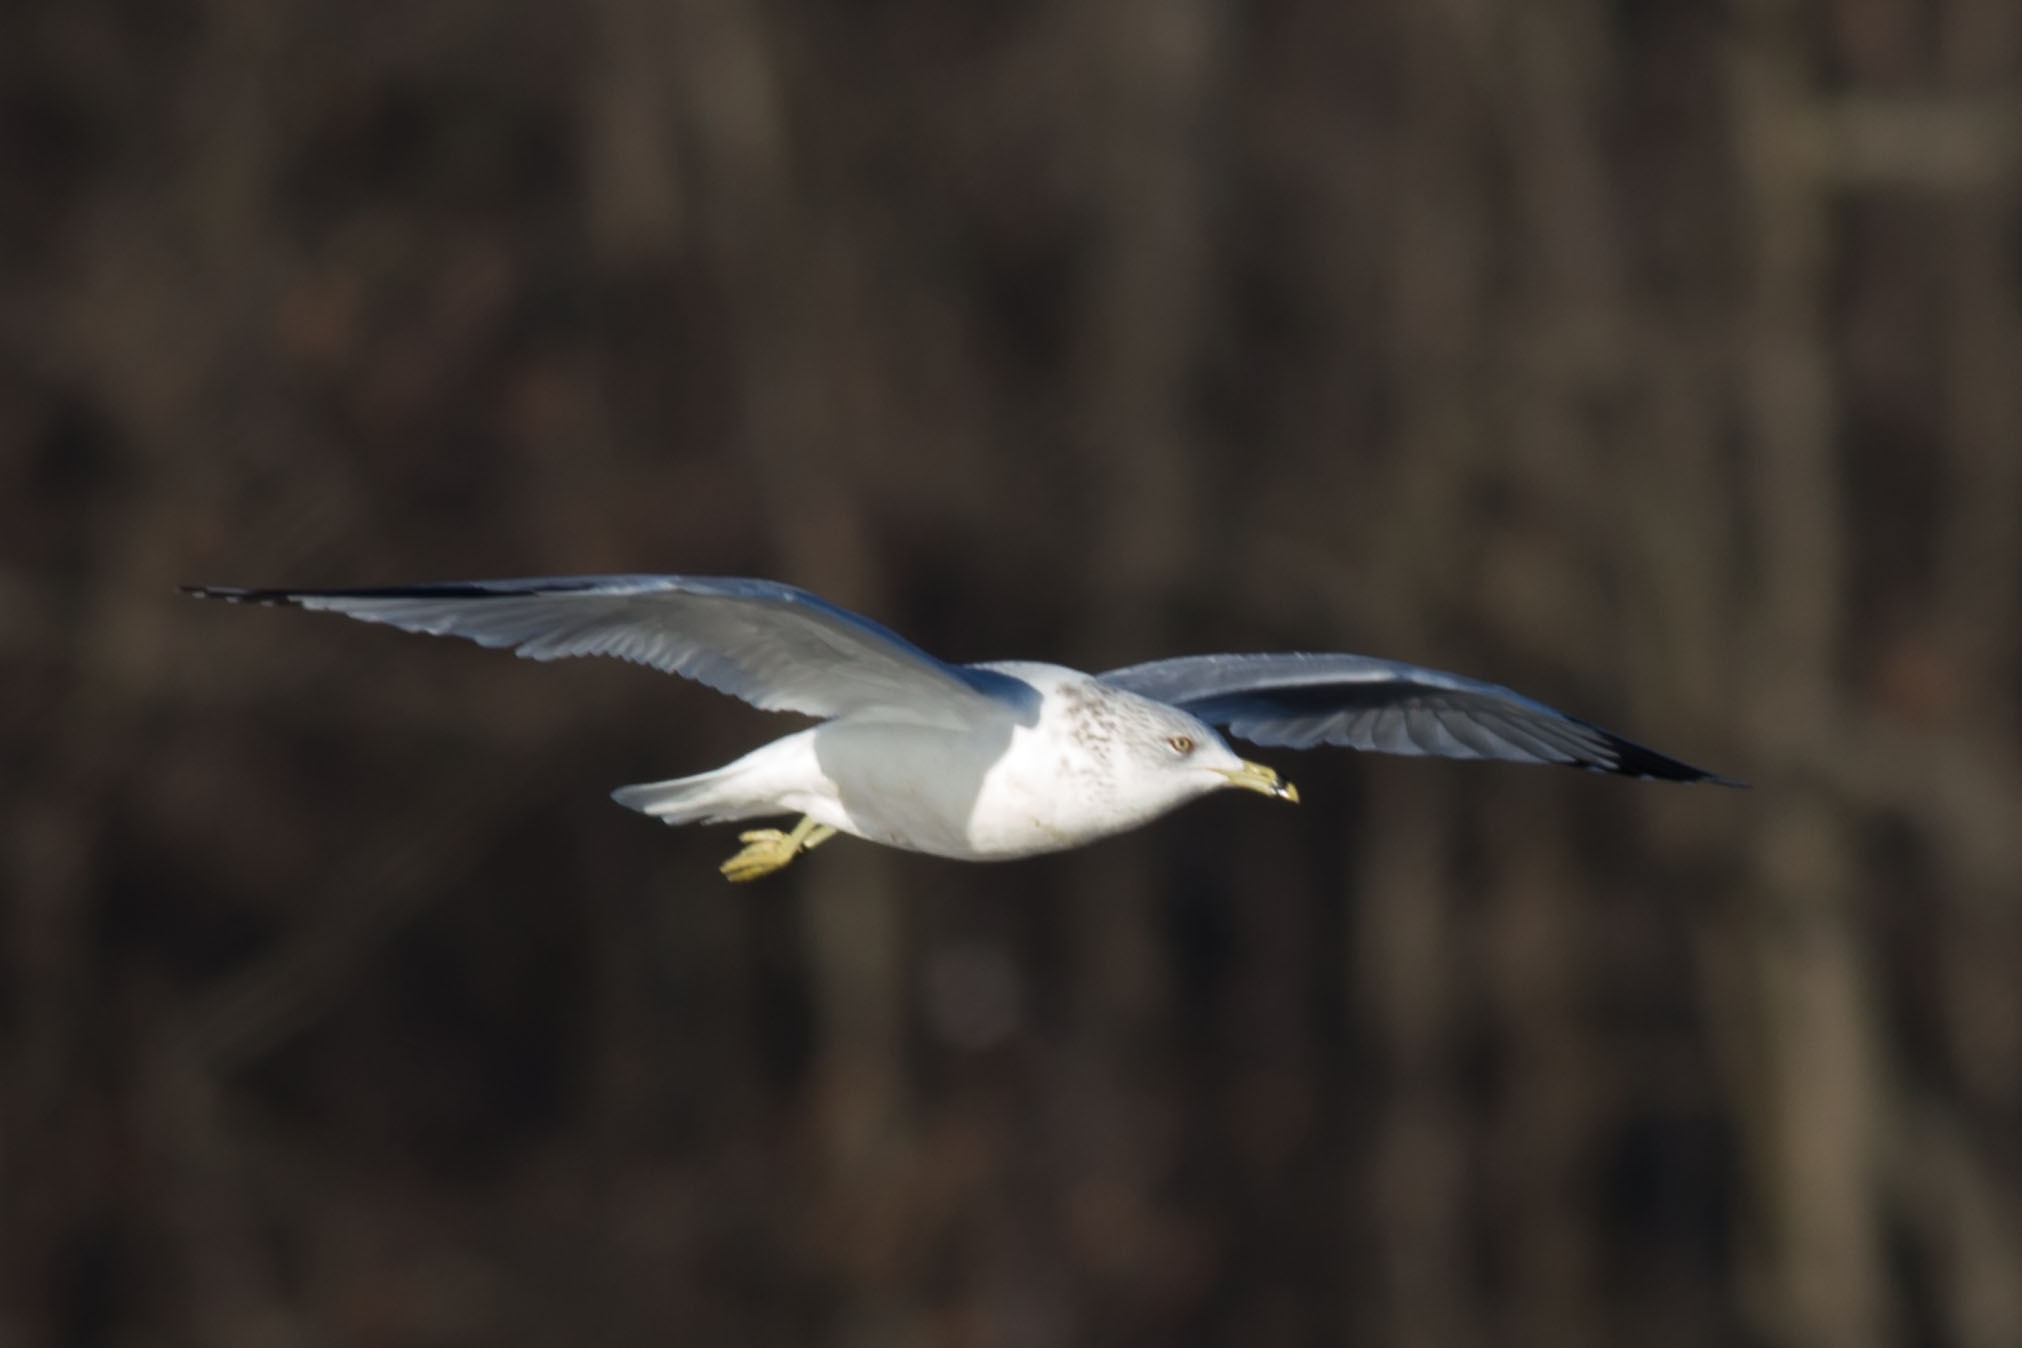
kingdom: Animalia
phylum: Chordata
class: Aves
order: Charadriiformes
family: Laridae
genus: Larus
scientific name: Larus delawarensis
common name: Ring-billed gull
